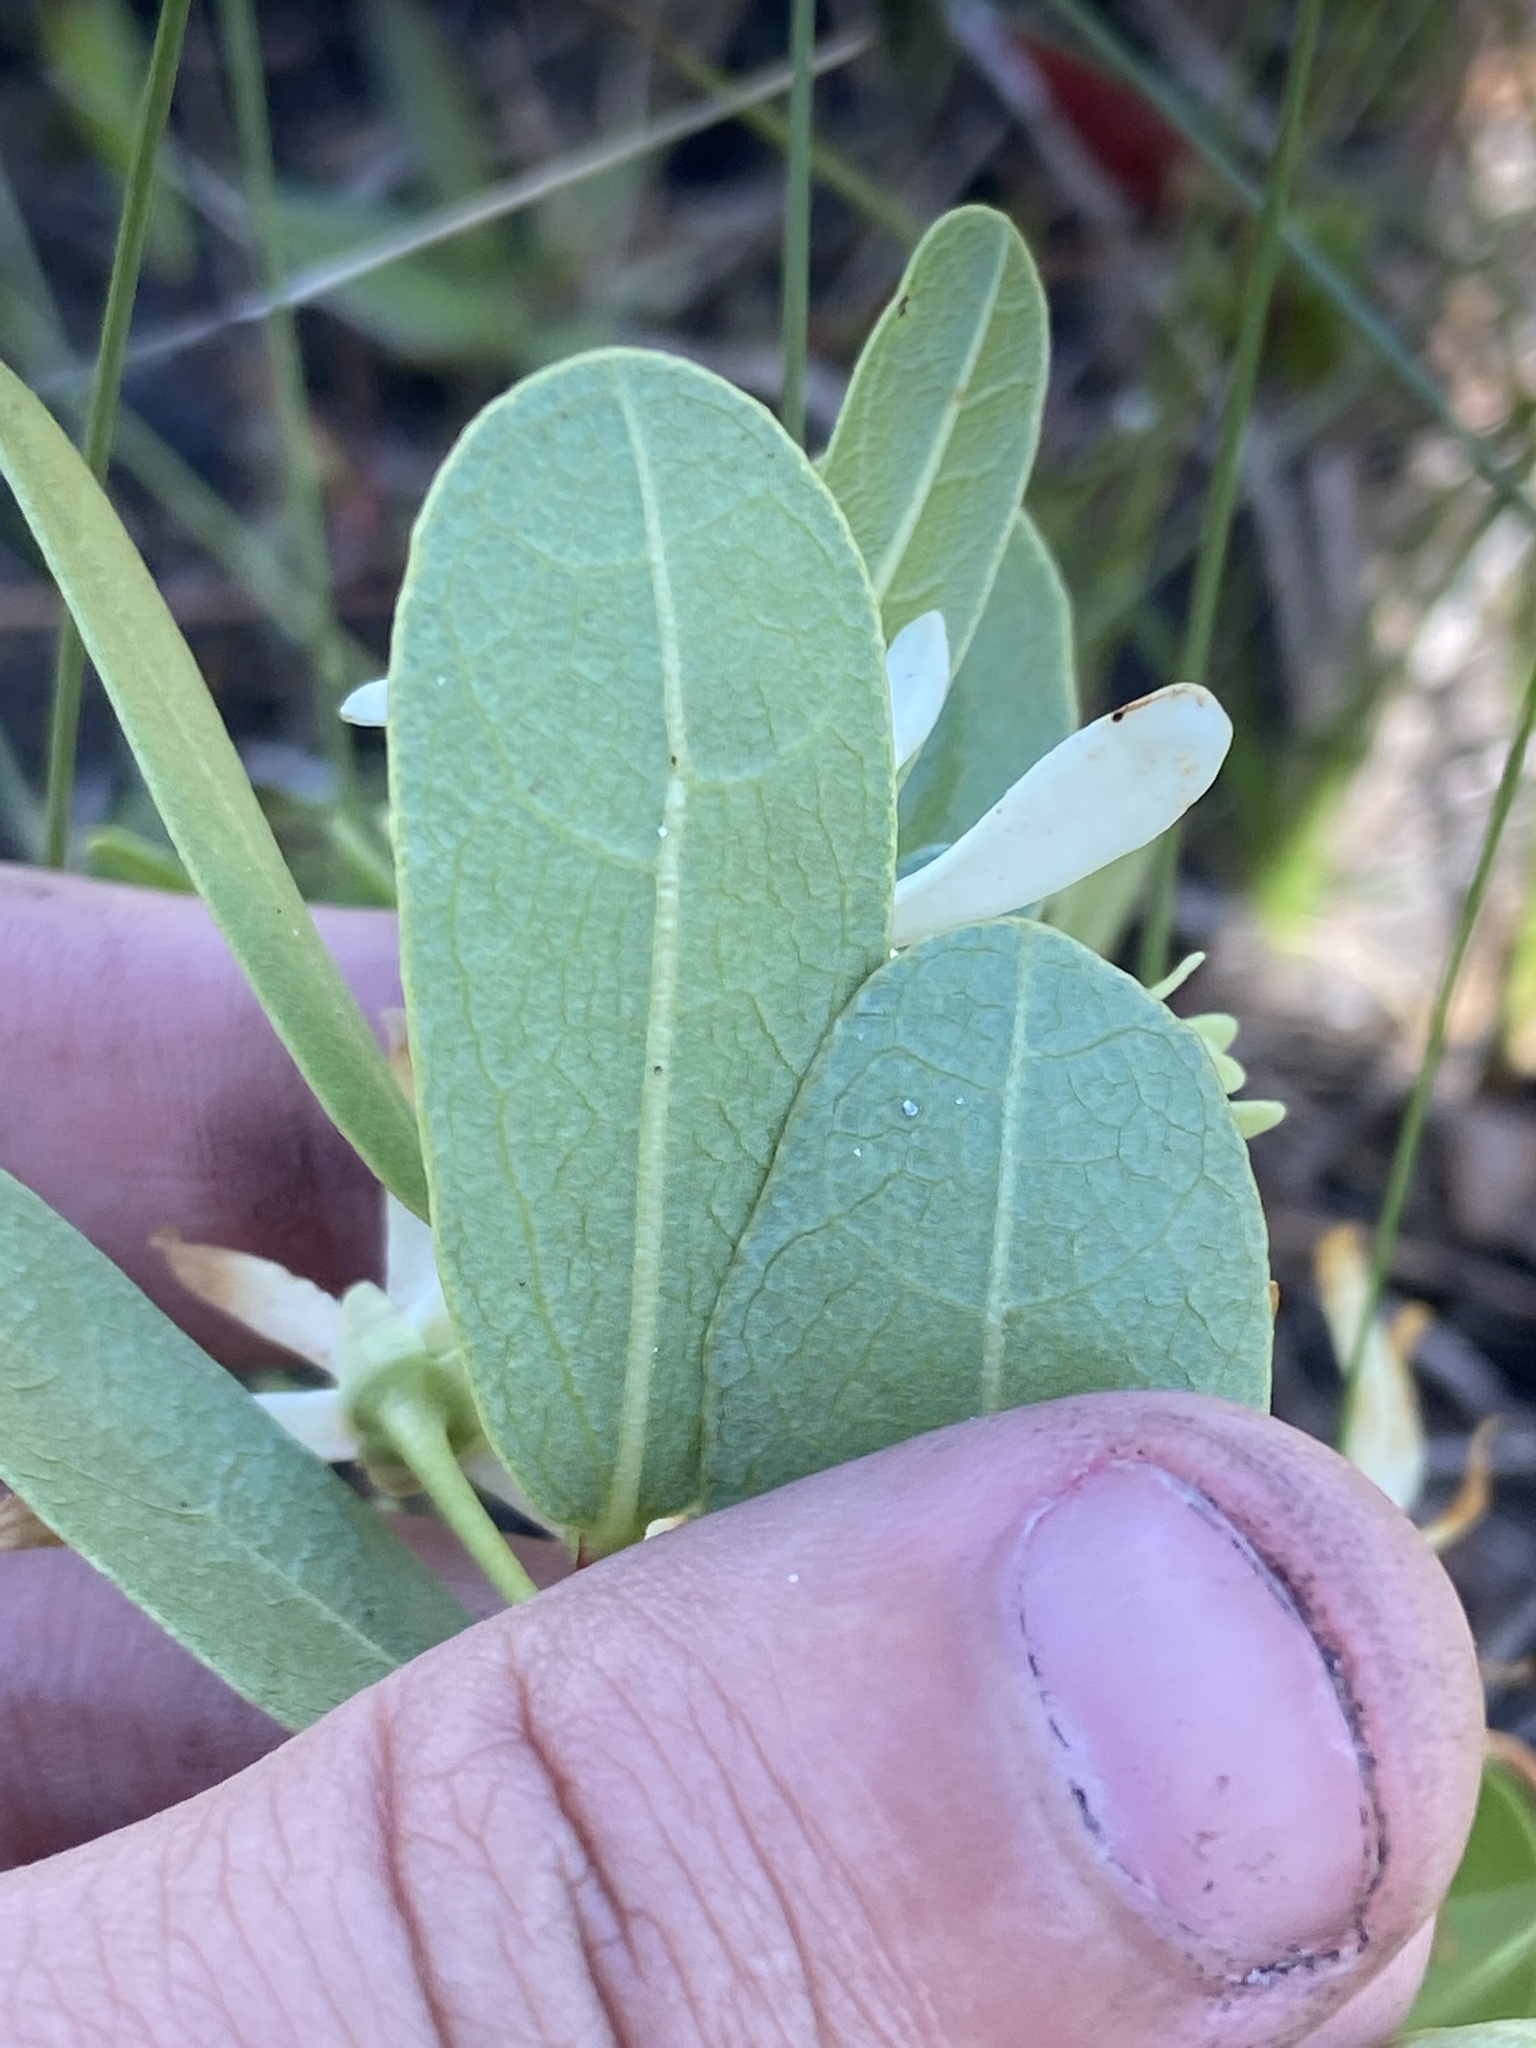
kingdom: Plantae
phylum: Tracheophyta
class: Magnoliopsida
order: Magnoliales
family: Annonaceae
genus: Asimina
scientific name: Asimina pulchella
